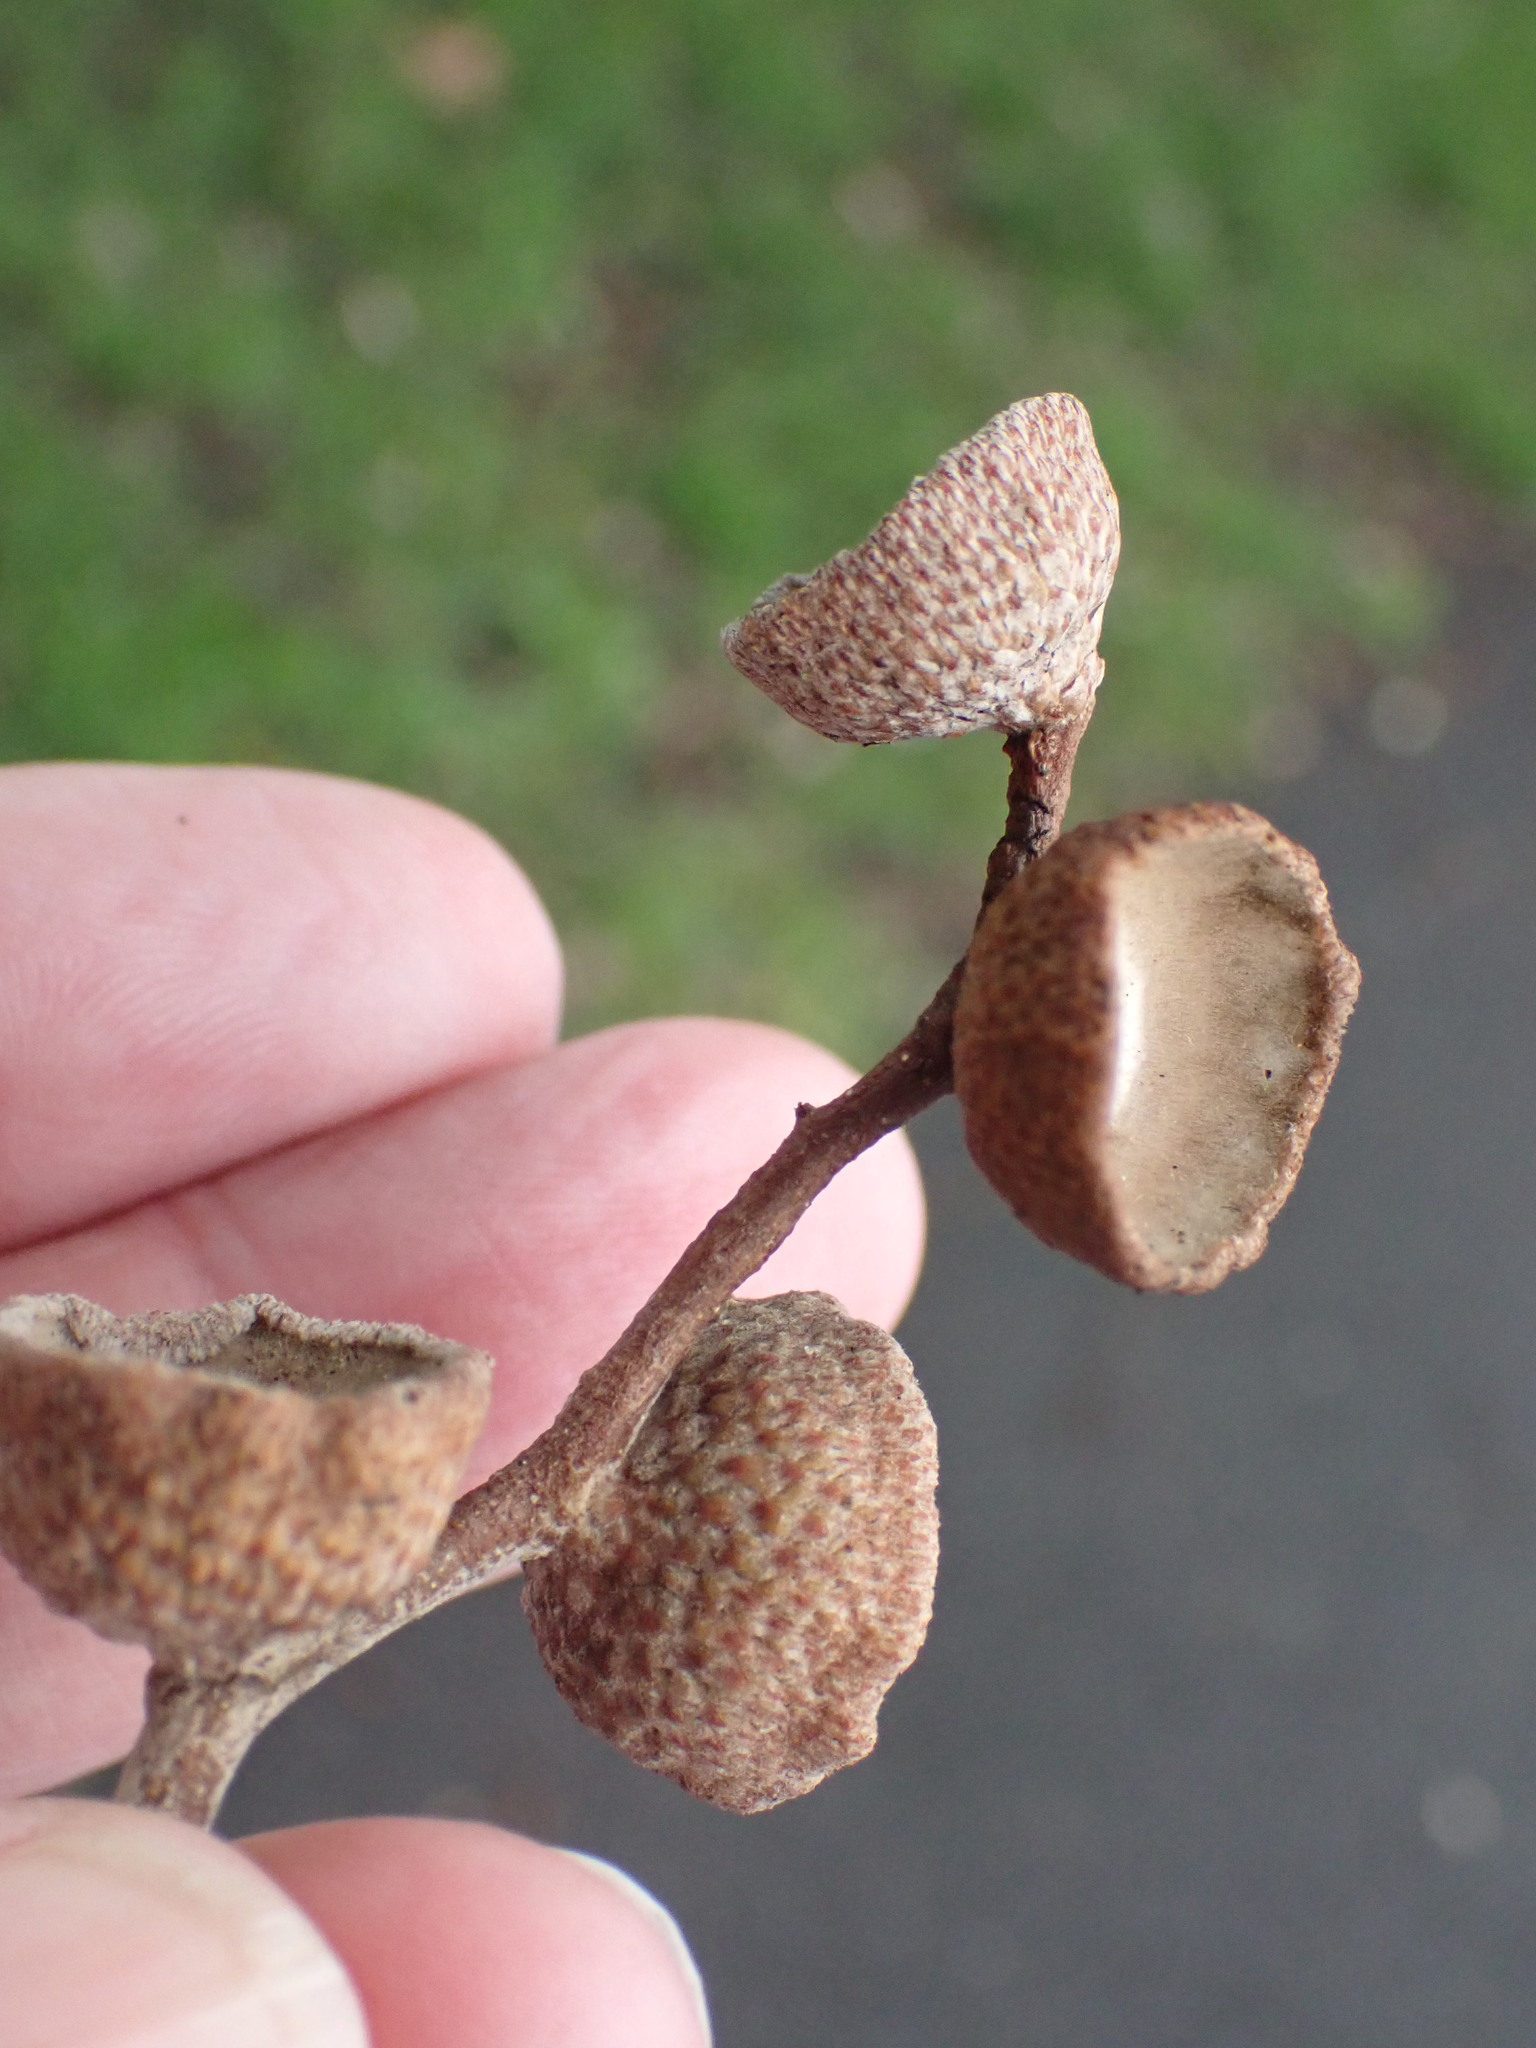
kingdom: Plantae
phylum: Tracheophyta
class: Magnoliopsida
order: Fagales
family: Fagaceae
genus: Quercus
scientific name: Quercus ilex
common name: Evergreen oak
